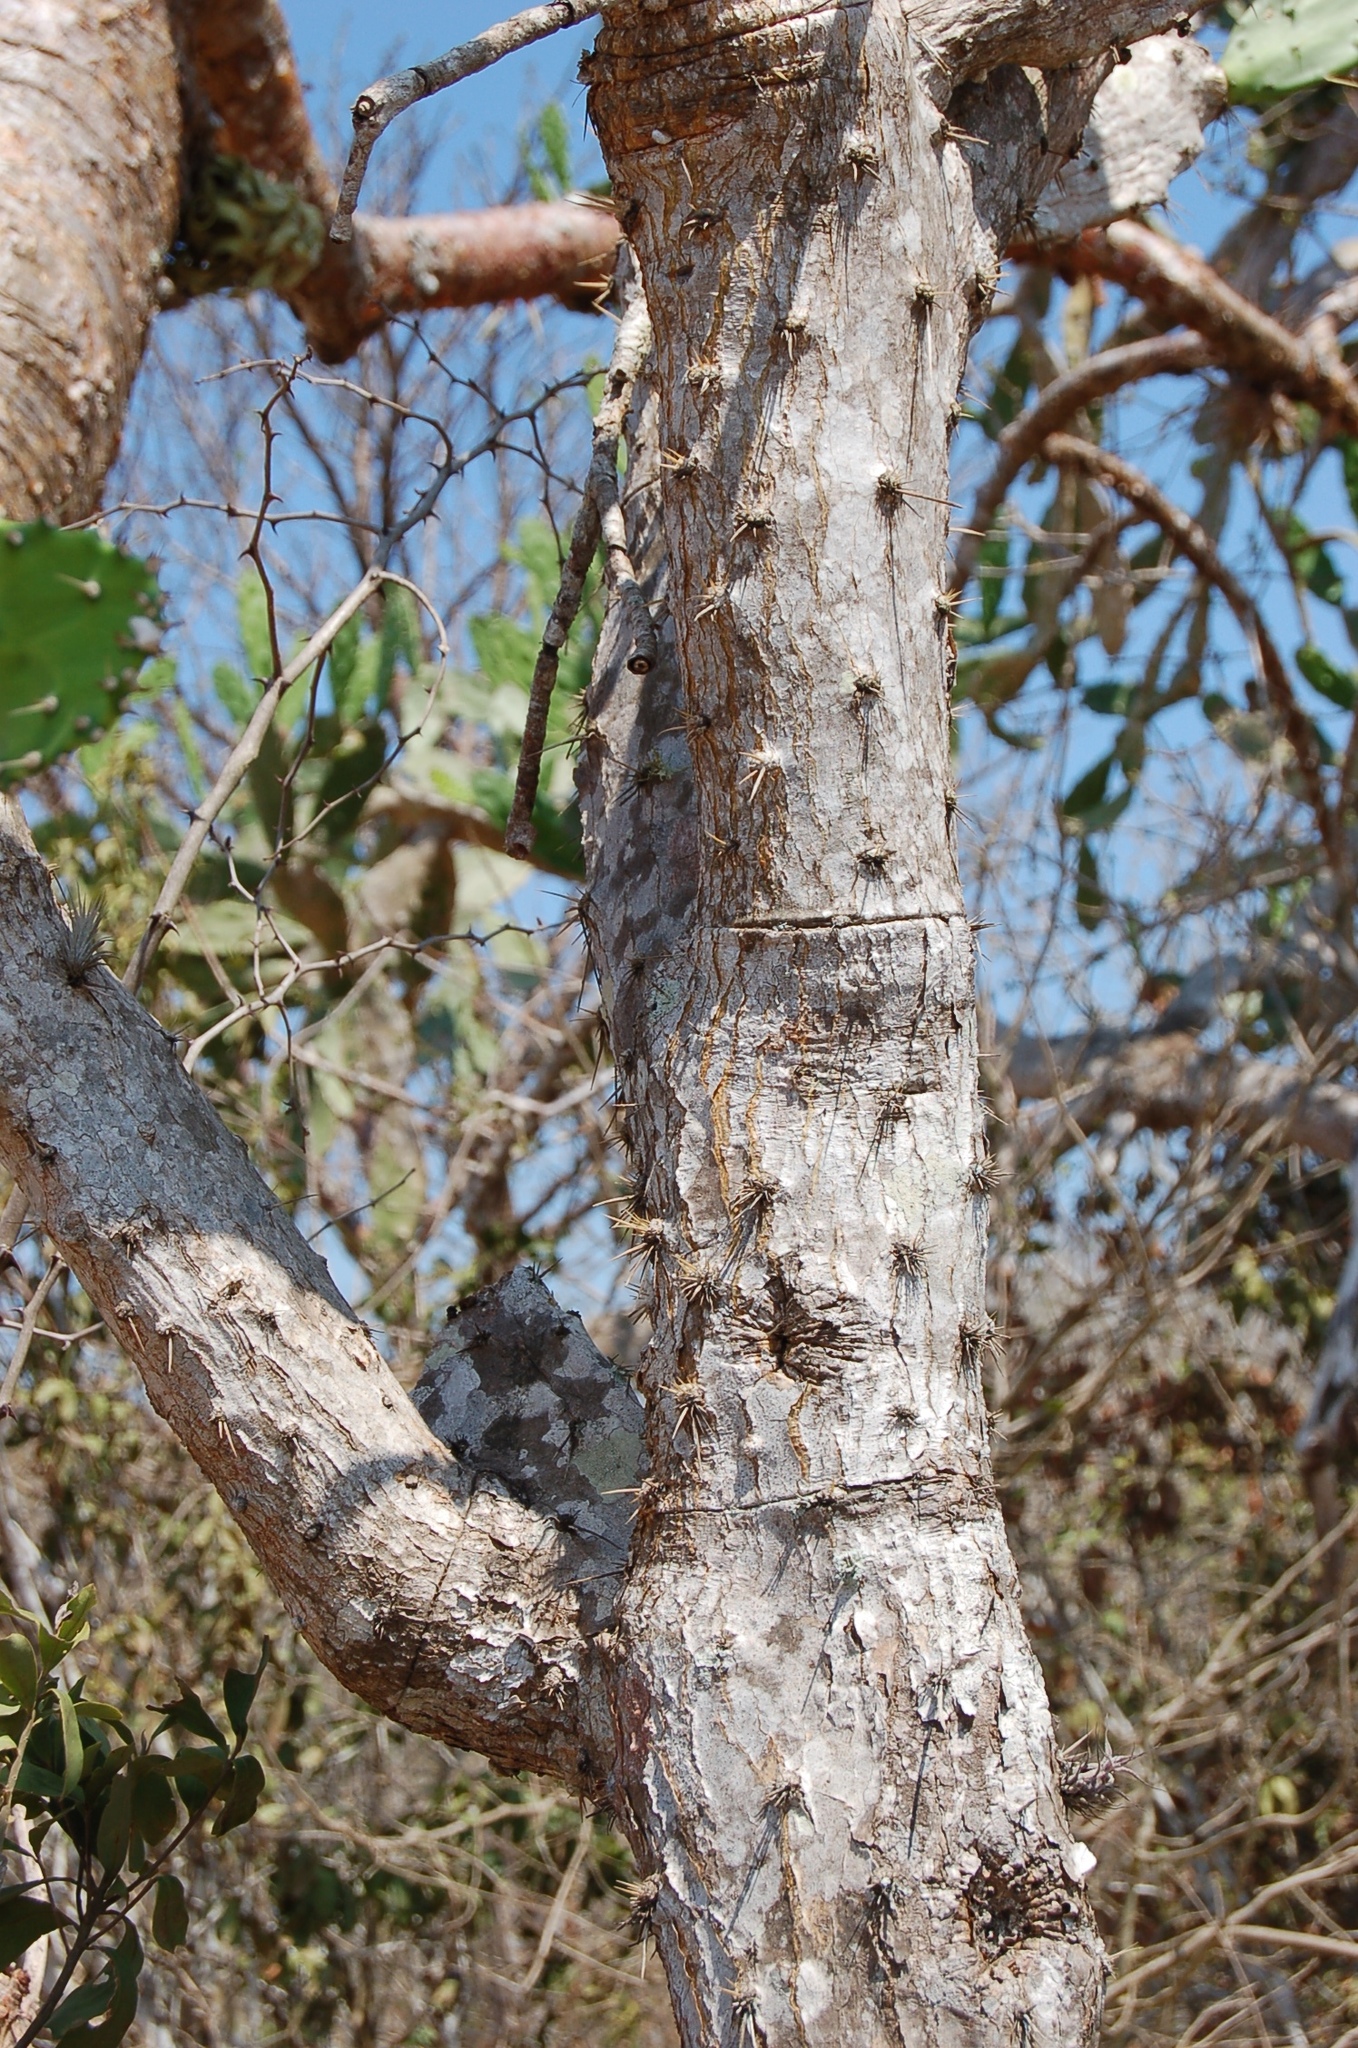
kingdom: Plantae
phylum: Tracheophyta
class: Magnoliopsida
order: Caryophyllales
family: Cactaceae
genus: Opuntia
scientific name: Opuntia dejecta
